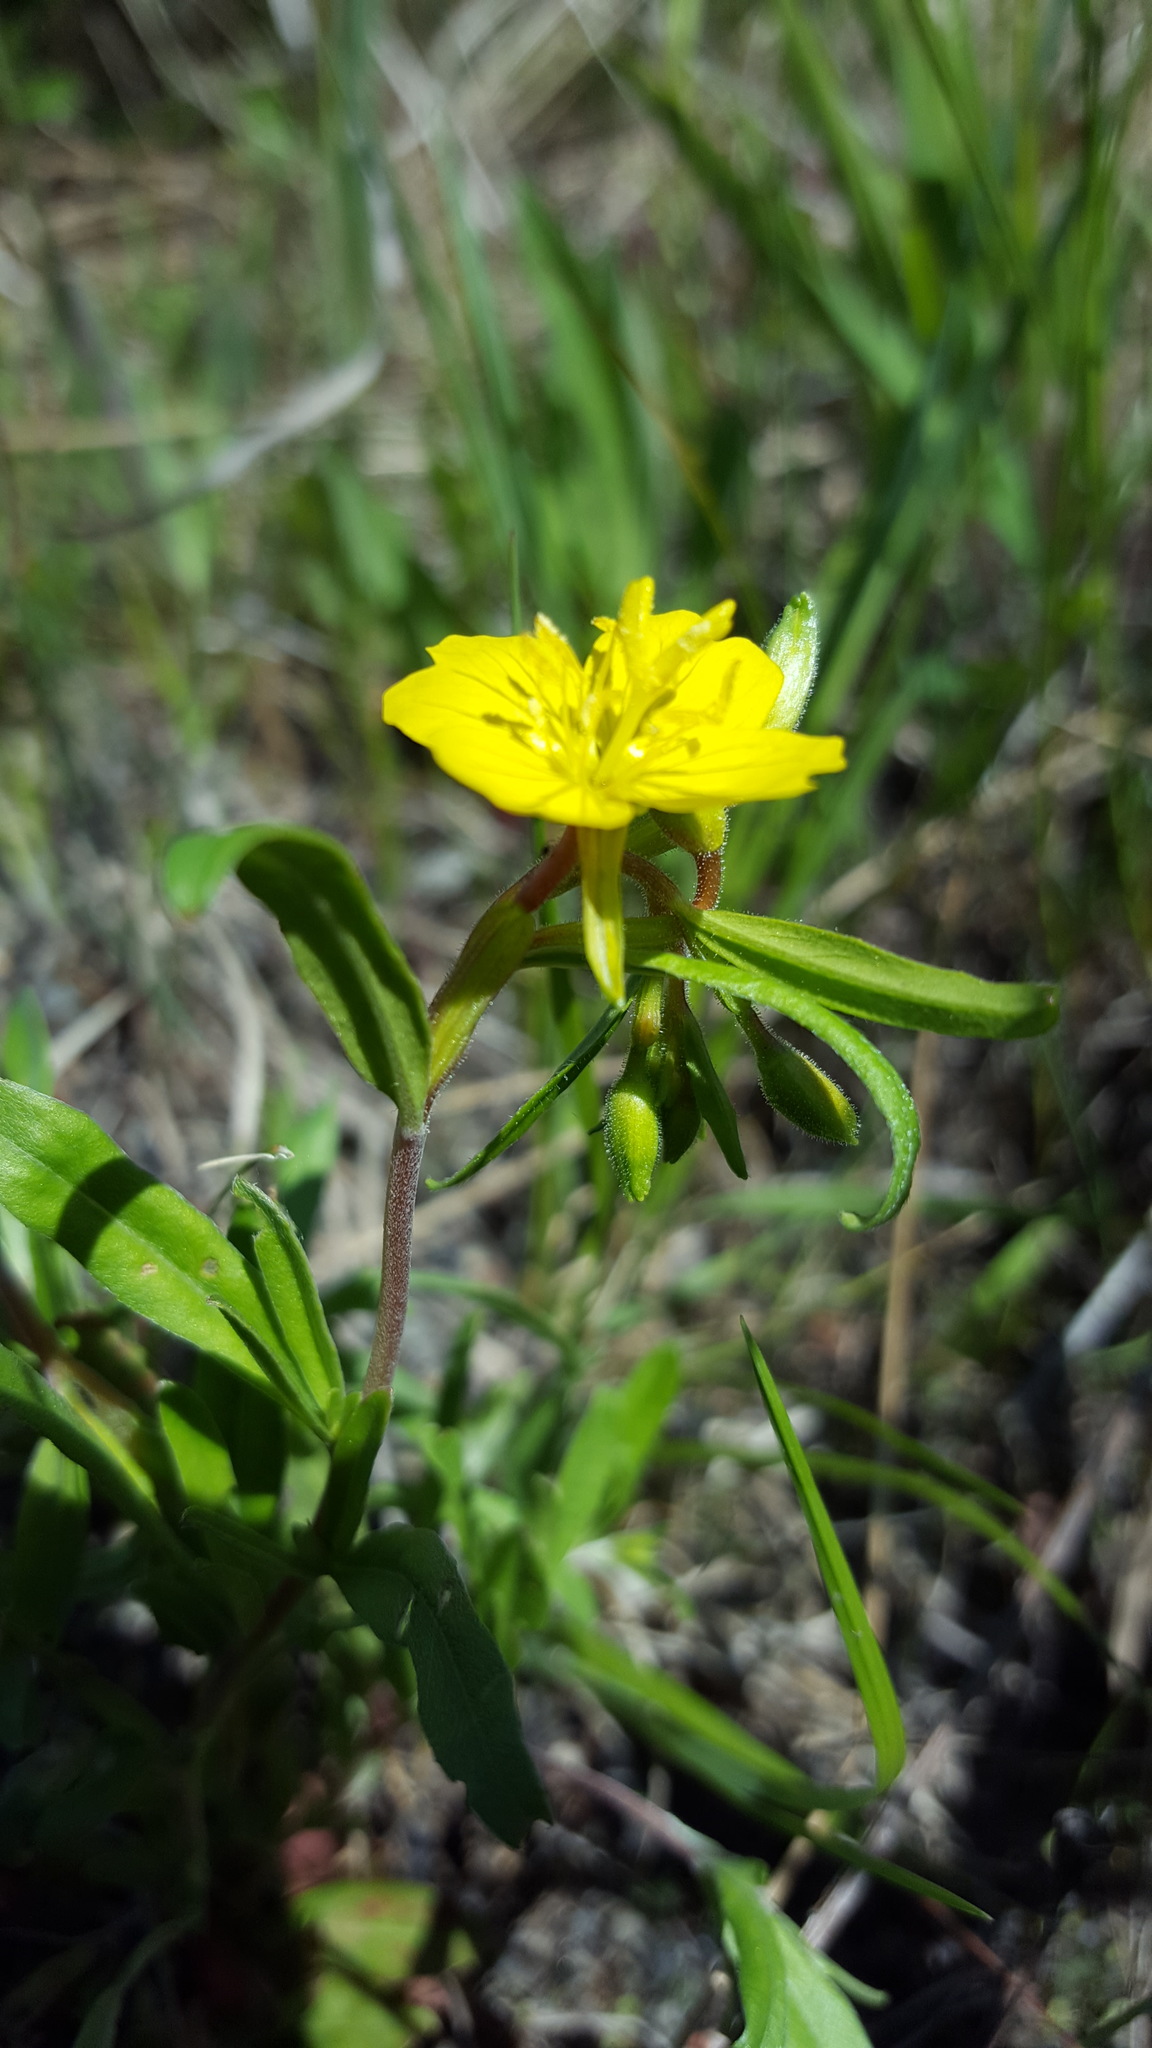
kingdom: Plantae
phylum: Tracheophyta
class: Magnoliopsida
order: Myrtales
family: Onagraceae
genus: Oenothera
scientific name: Oenothera perennis
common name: Small sundrops
